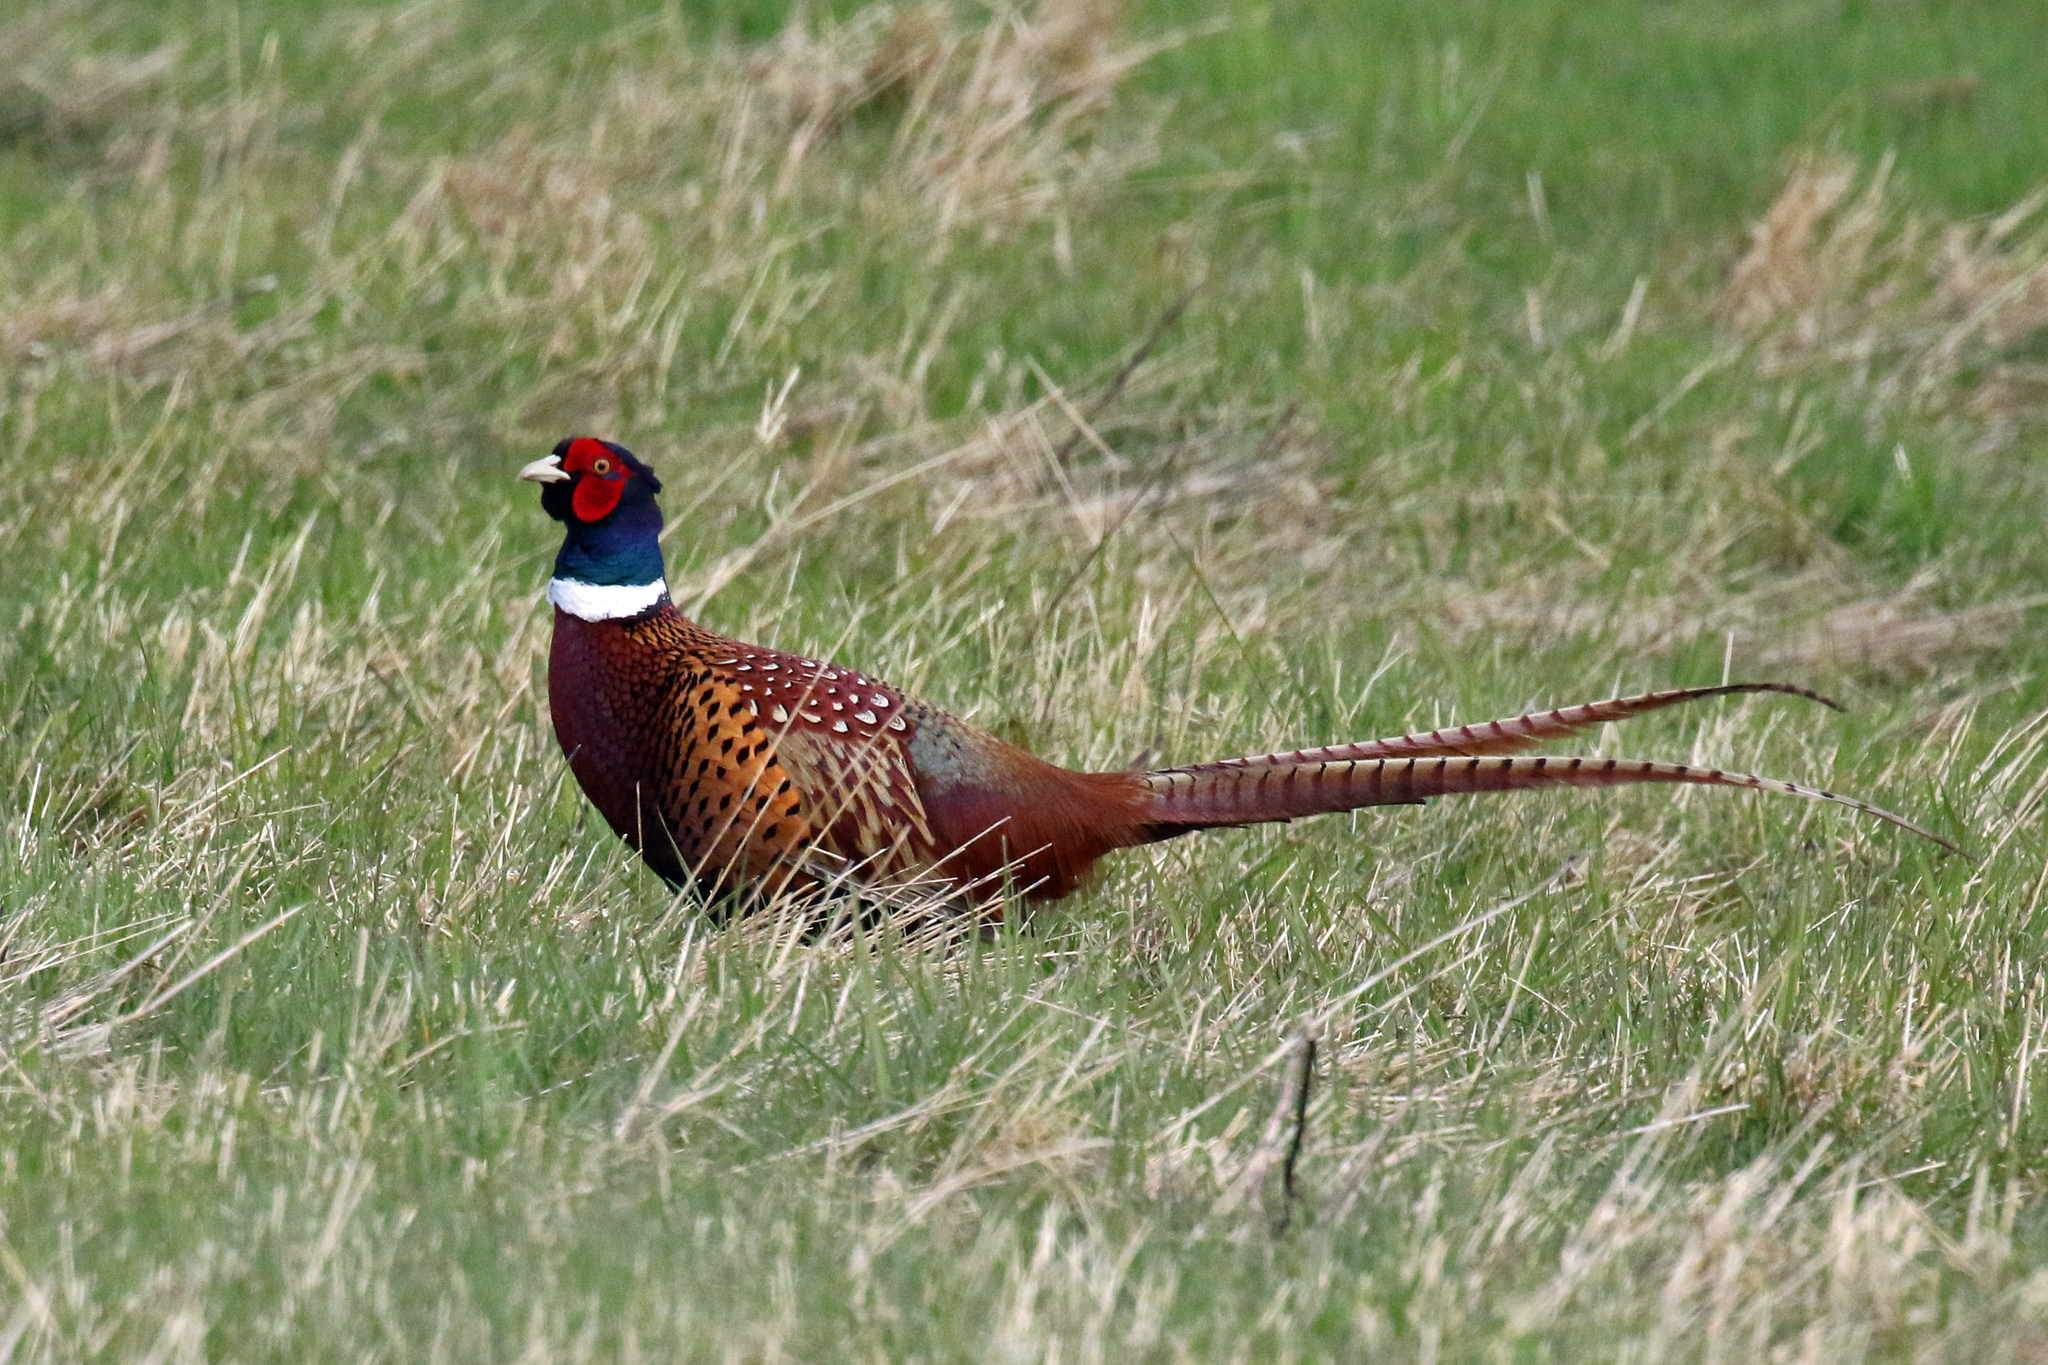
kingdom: Animalia
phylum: Chordata
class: Aves
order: Galliformes
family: Phasianidae
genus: Phasianus
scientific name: Phasianus colchicus
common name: Common pheasant
